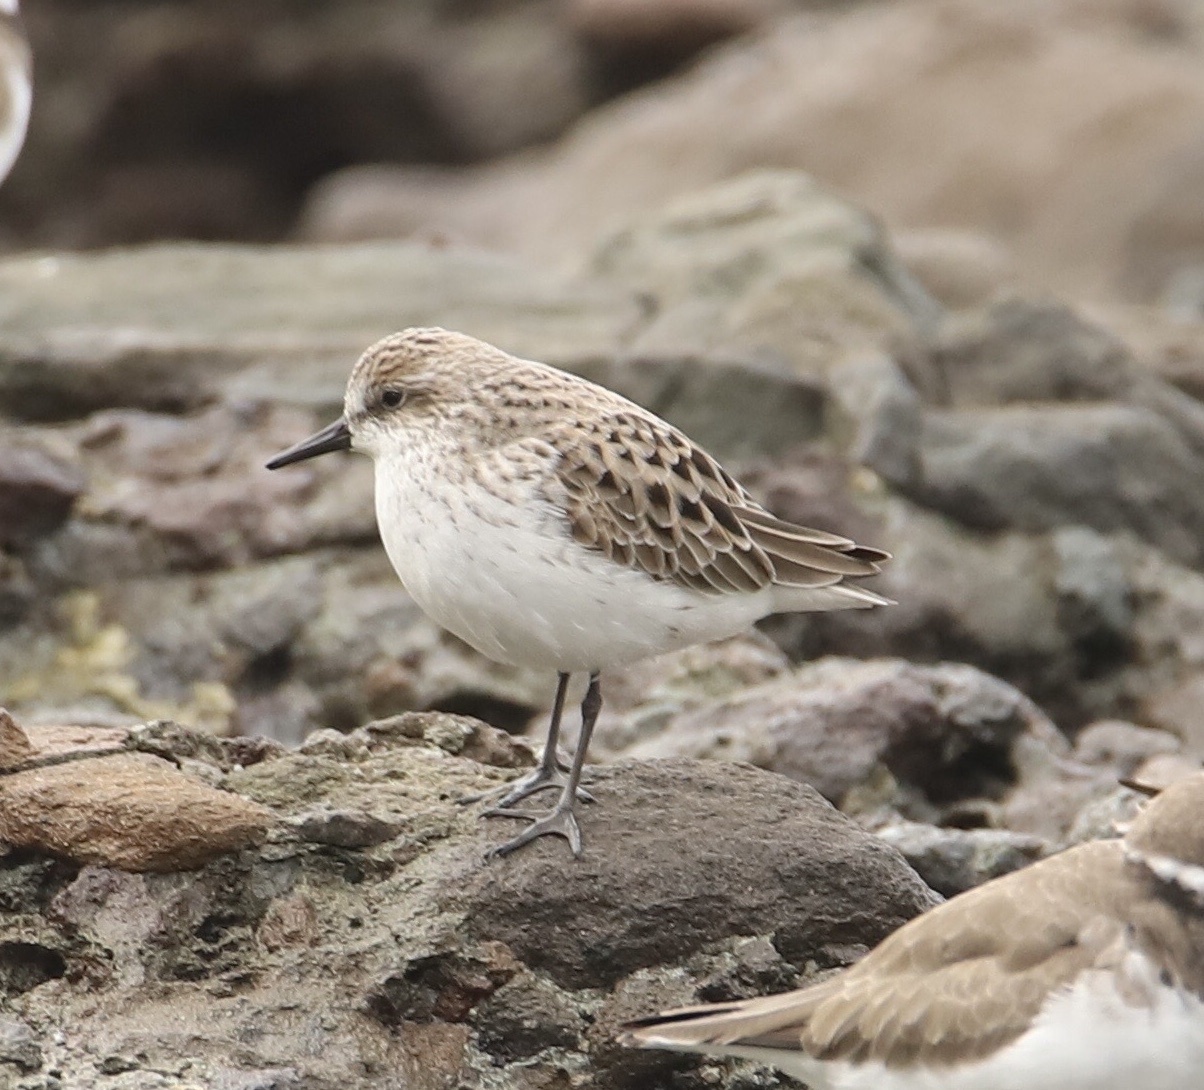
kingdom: Animalia
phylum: Chordata
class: Aves
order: Charadriiformes
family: Scolopacidae
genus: Calidris
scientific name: Calidris pusilla
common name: Semipalmated sandpiper
